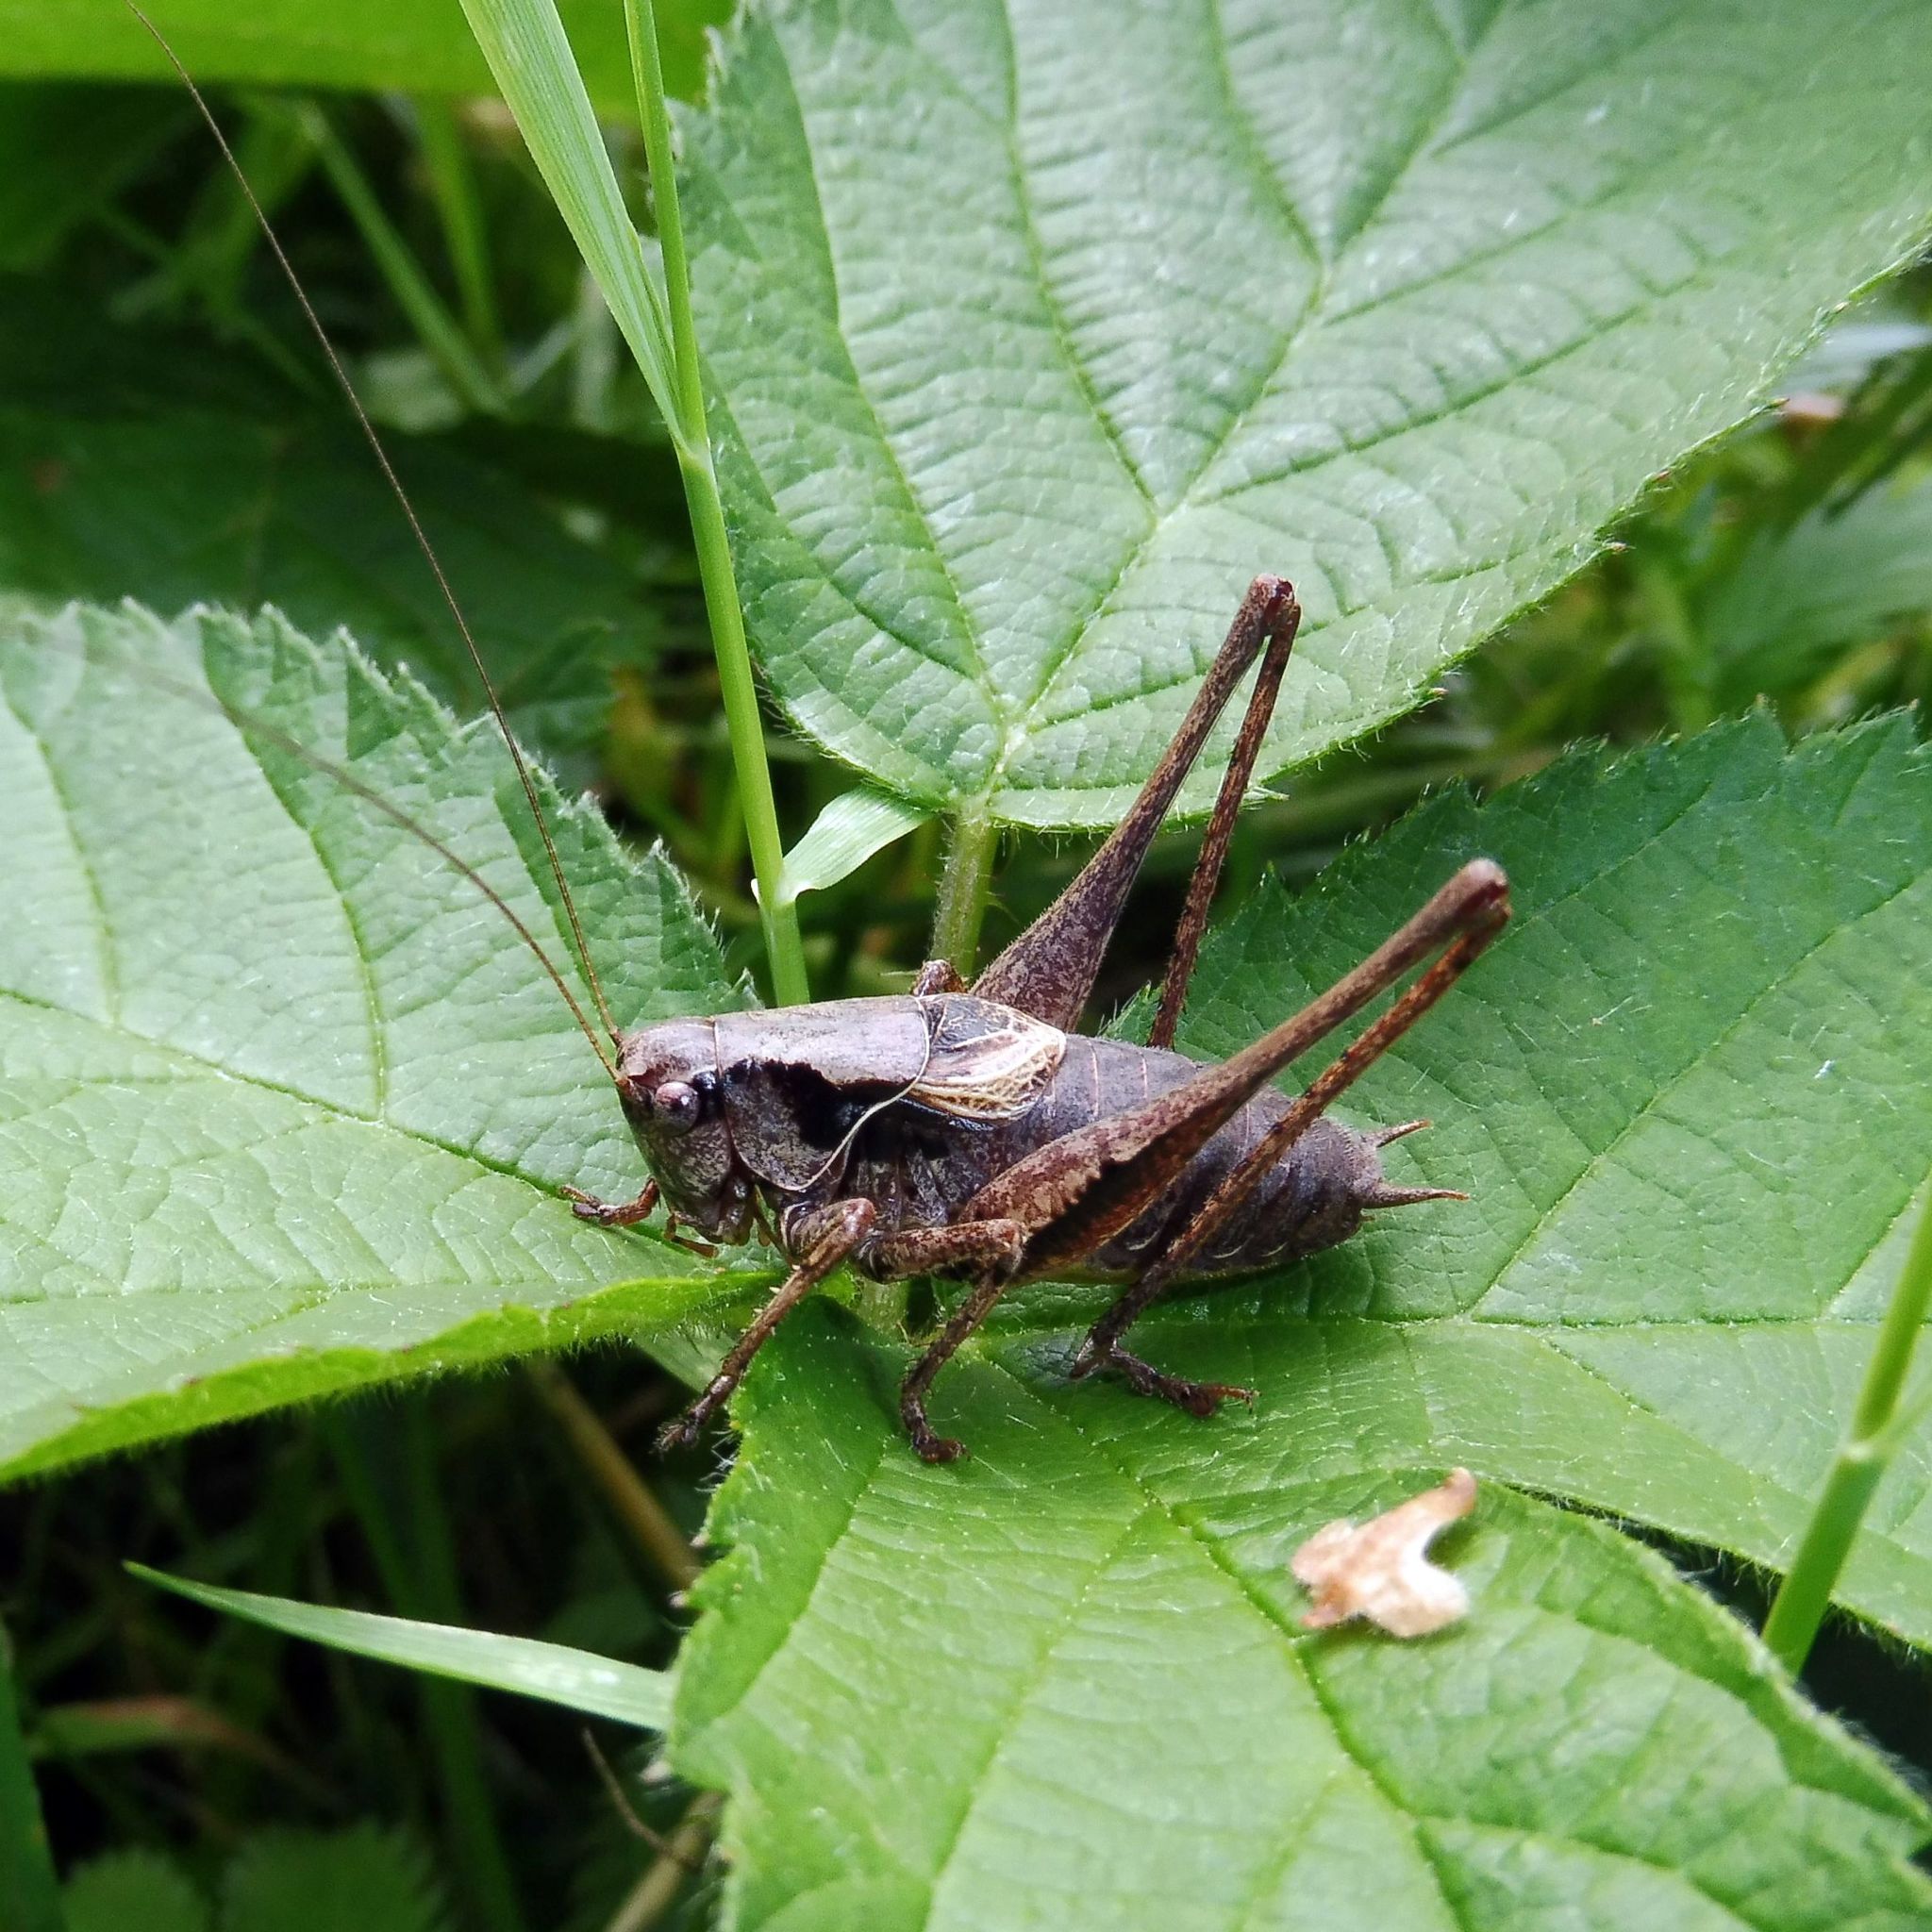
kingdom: Animalia
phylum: Arthropoda
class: Insecta
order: Orthoptera
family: Tettigoniidae
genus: Pholidoptera
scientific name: Pholidoptera griseoaptera
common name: Dark bush-cricket
